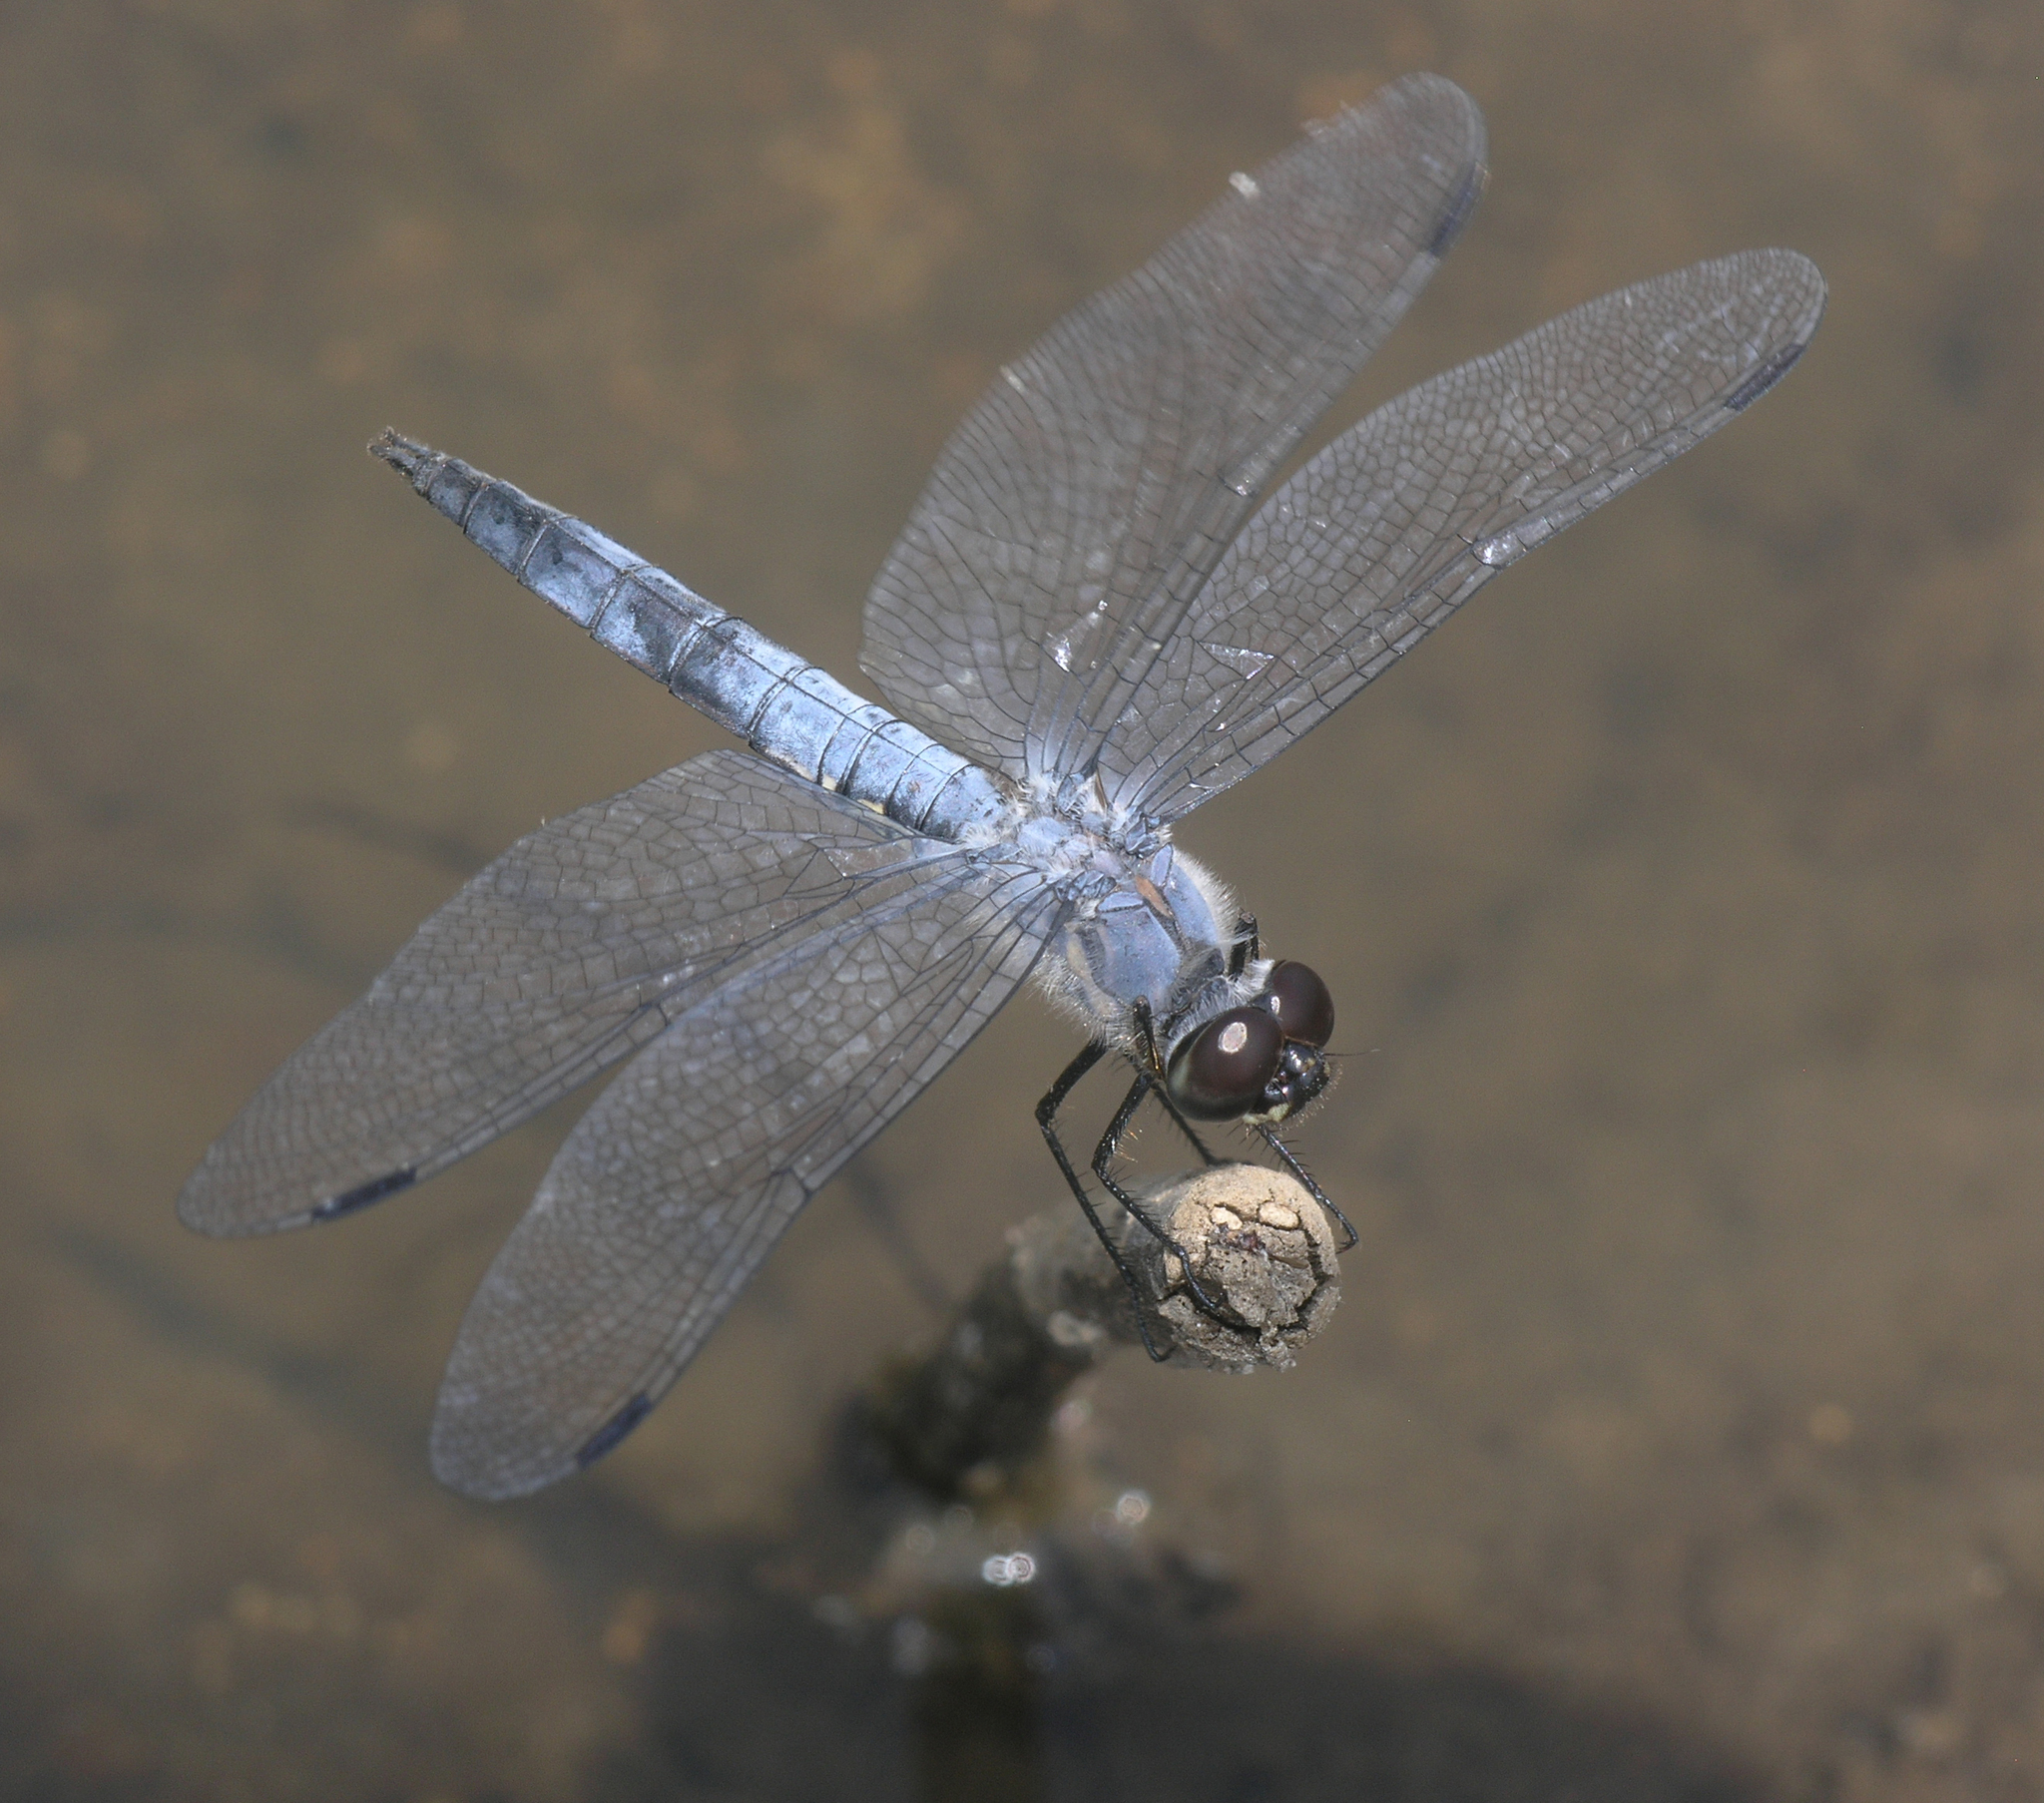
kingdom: Animalia
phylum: Arthropoda
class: Insecta
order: Odonata
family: Libellulidae
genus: Deielia
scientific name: Deielia phaon
